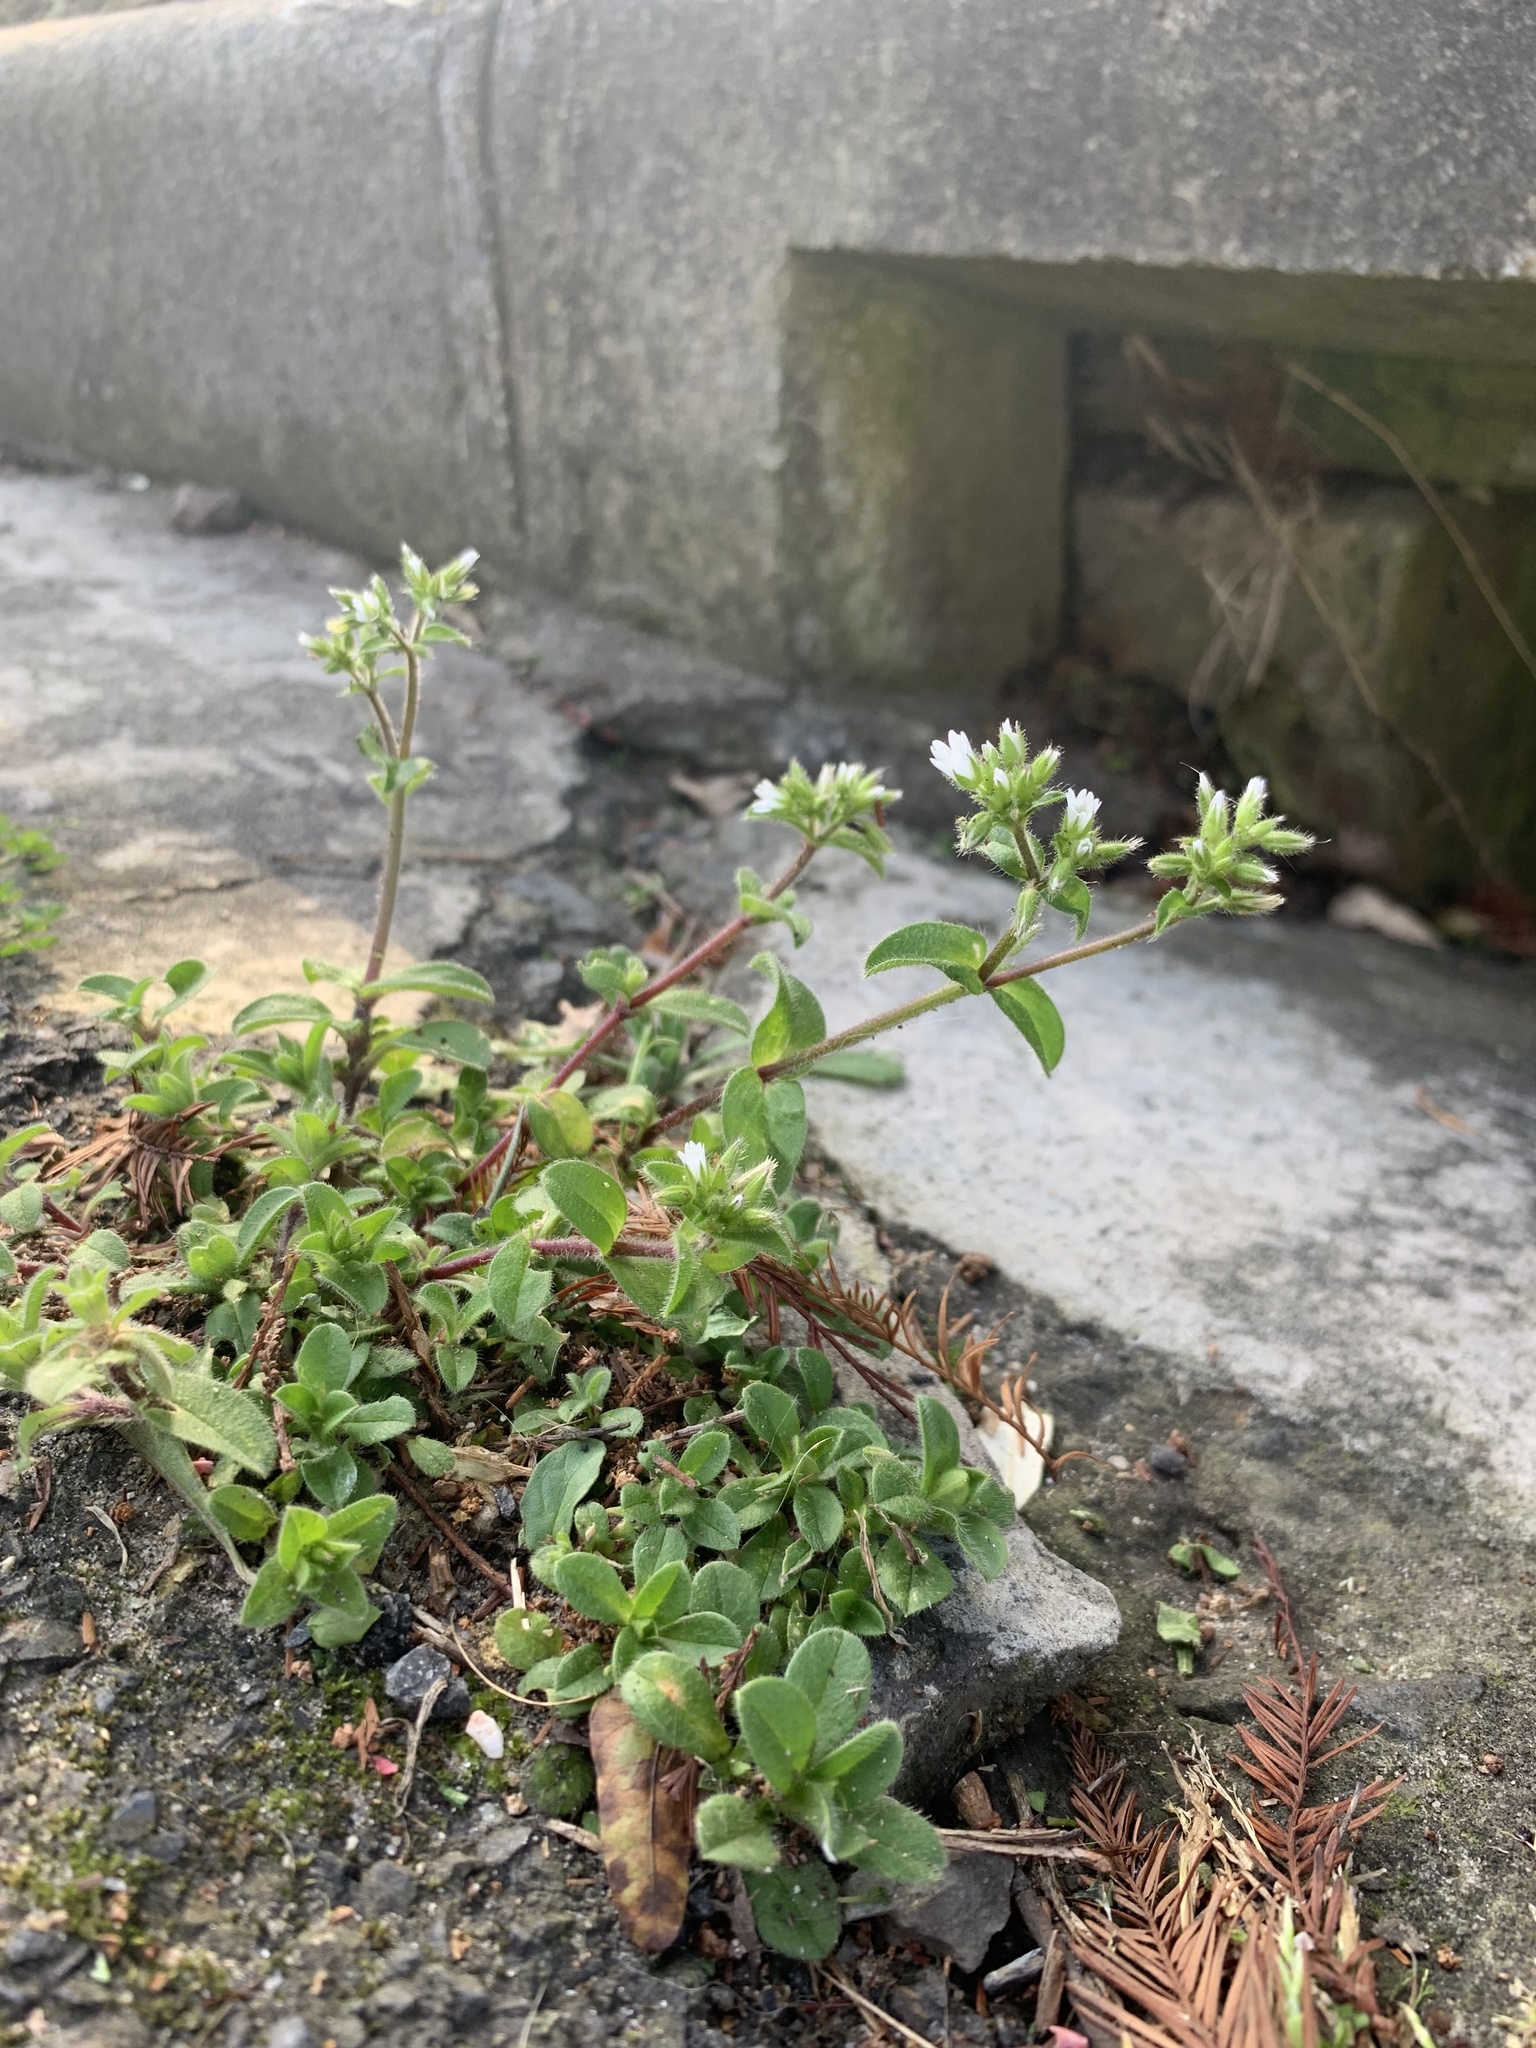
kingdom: Plantae
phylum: Tracheophyta
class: Magnoliopsida
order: Caryophyllales
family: Caryophyllaceae
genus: Cerastium
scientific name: Cerastium glomeratum
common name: Sticky chickweed
